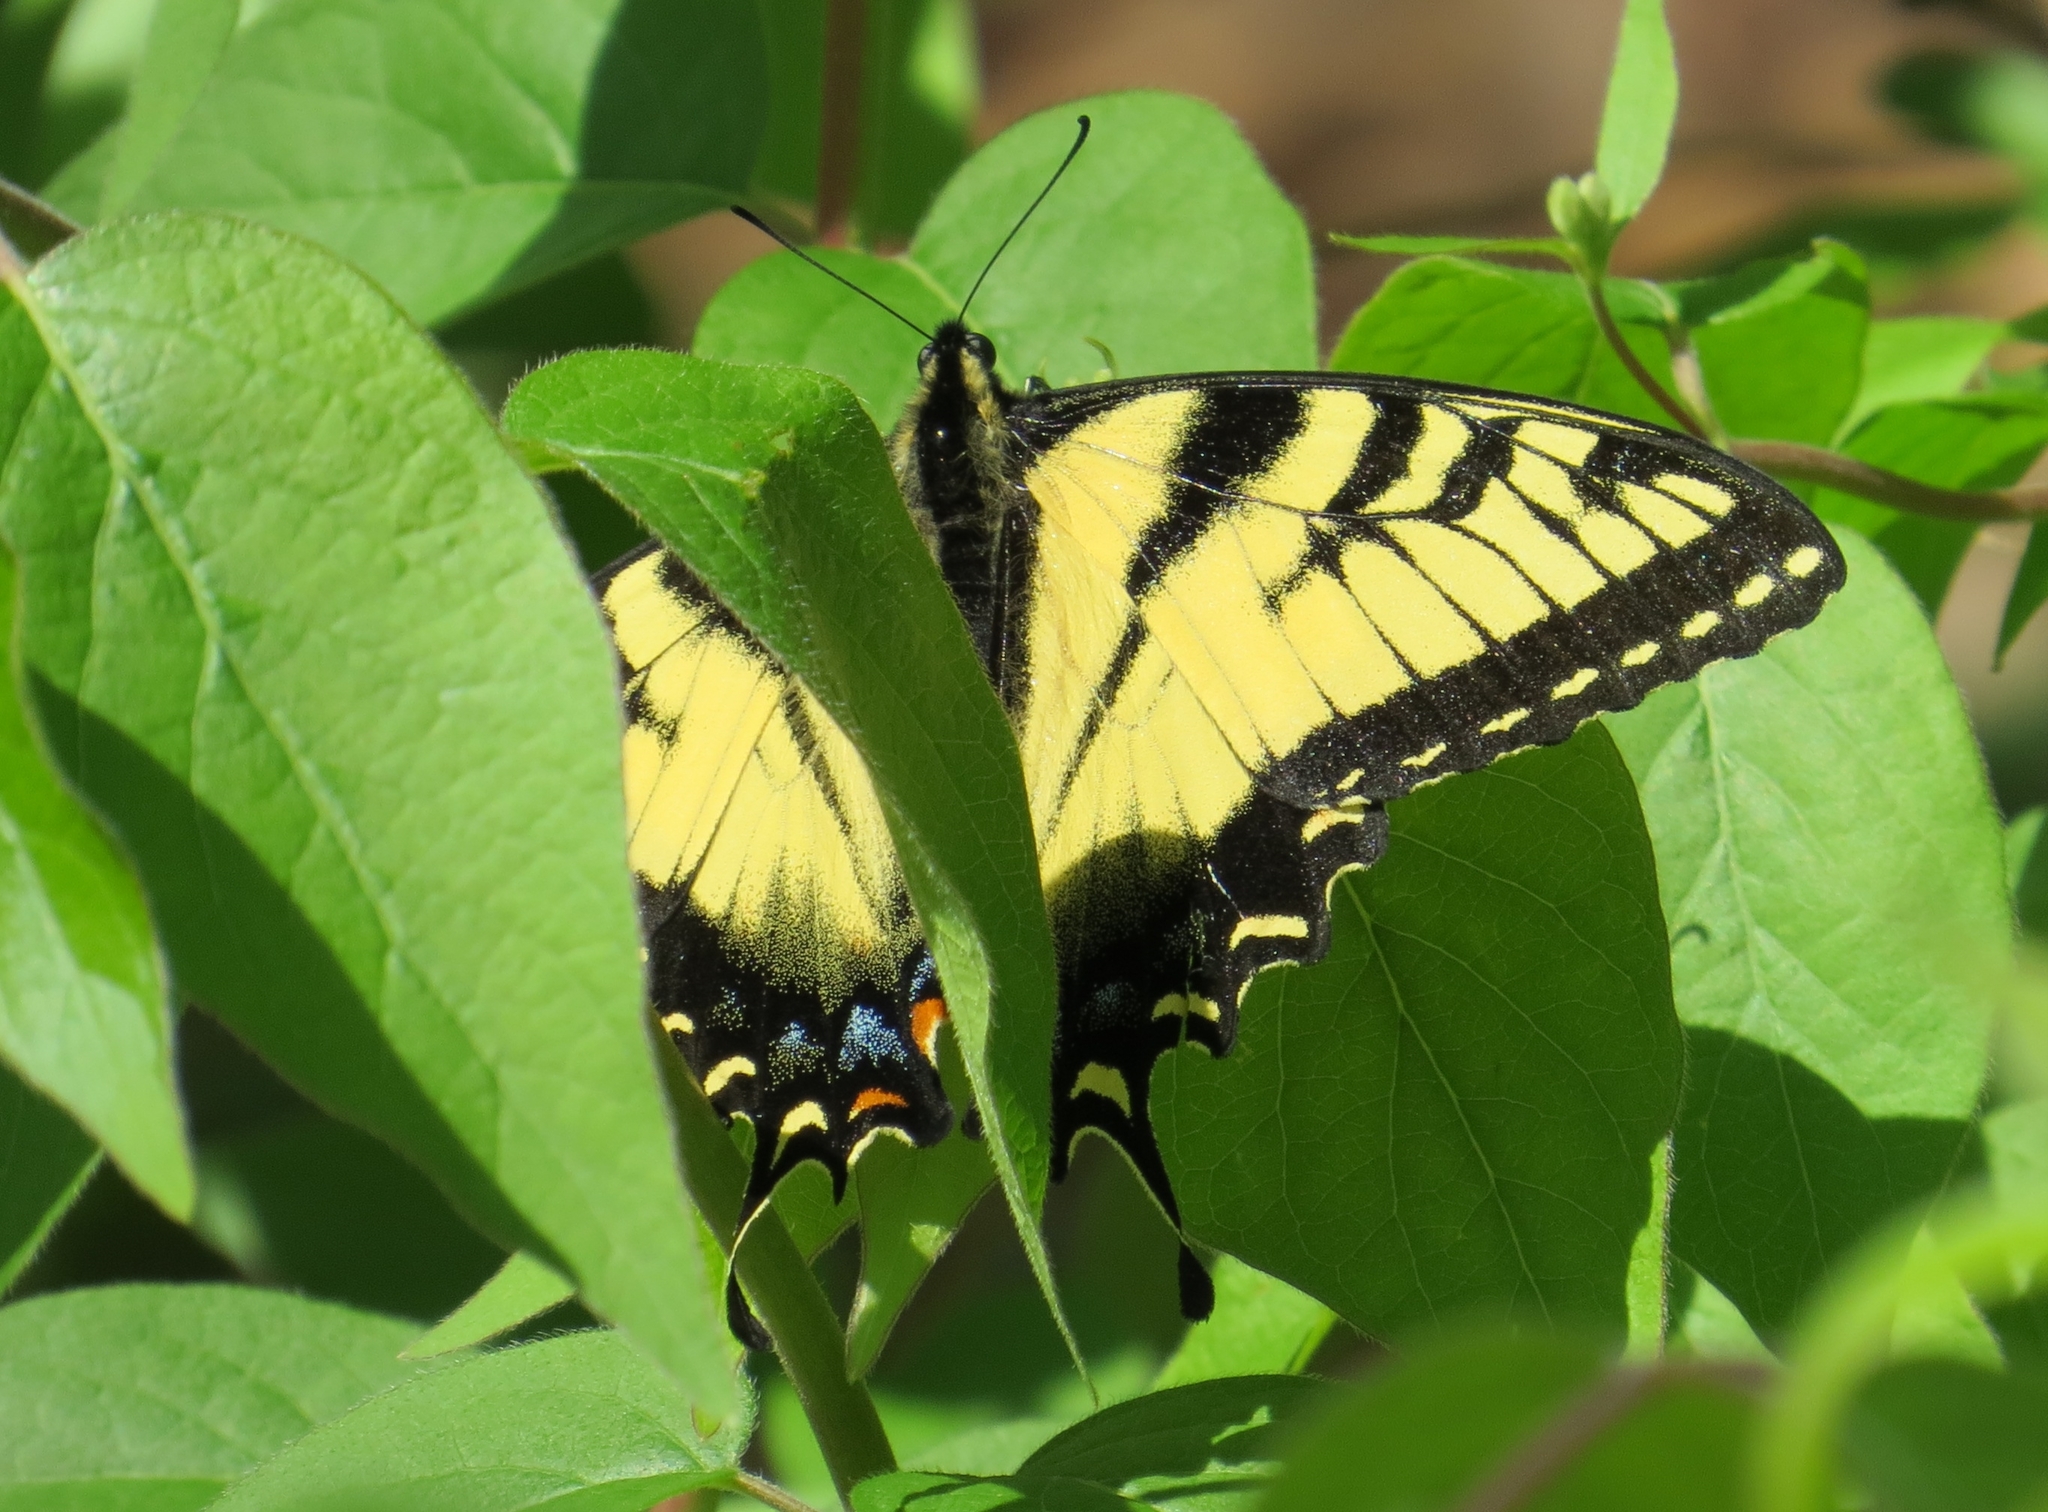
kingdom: Animalia
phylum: Arthropoda
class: Insecta
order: Lepidoptera
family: Papilionidae
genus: Papilio
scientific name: Papilio glaucus
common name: Tiger swallowtail
